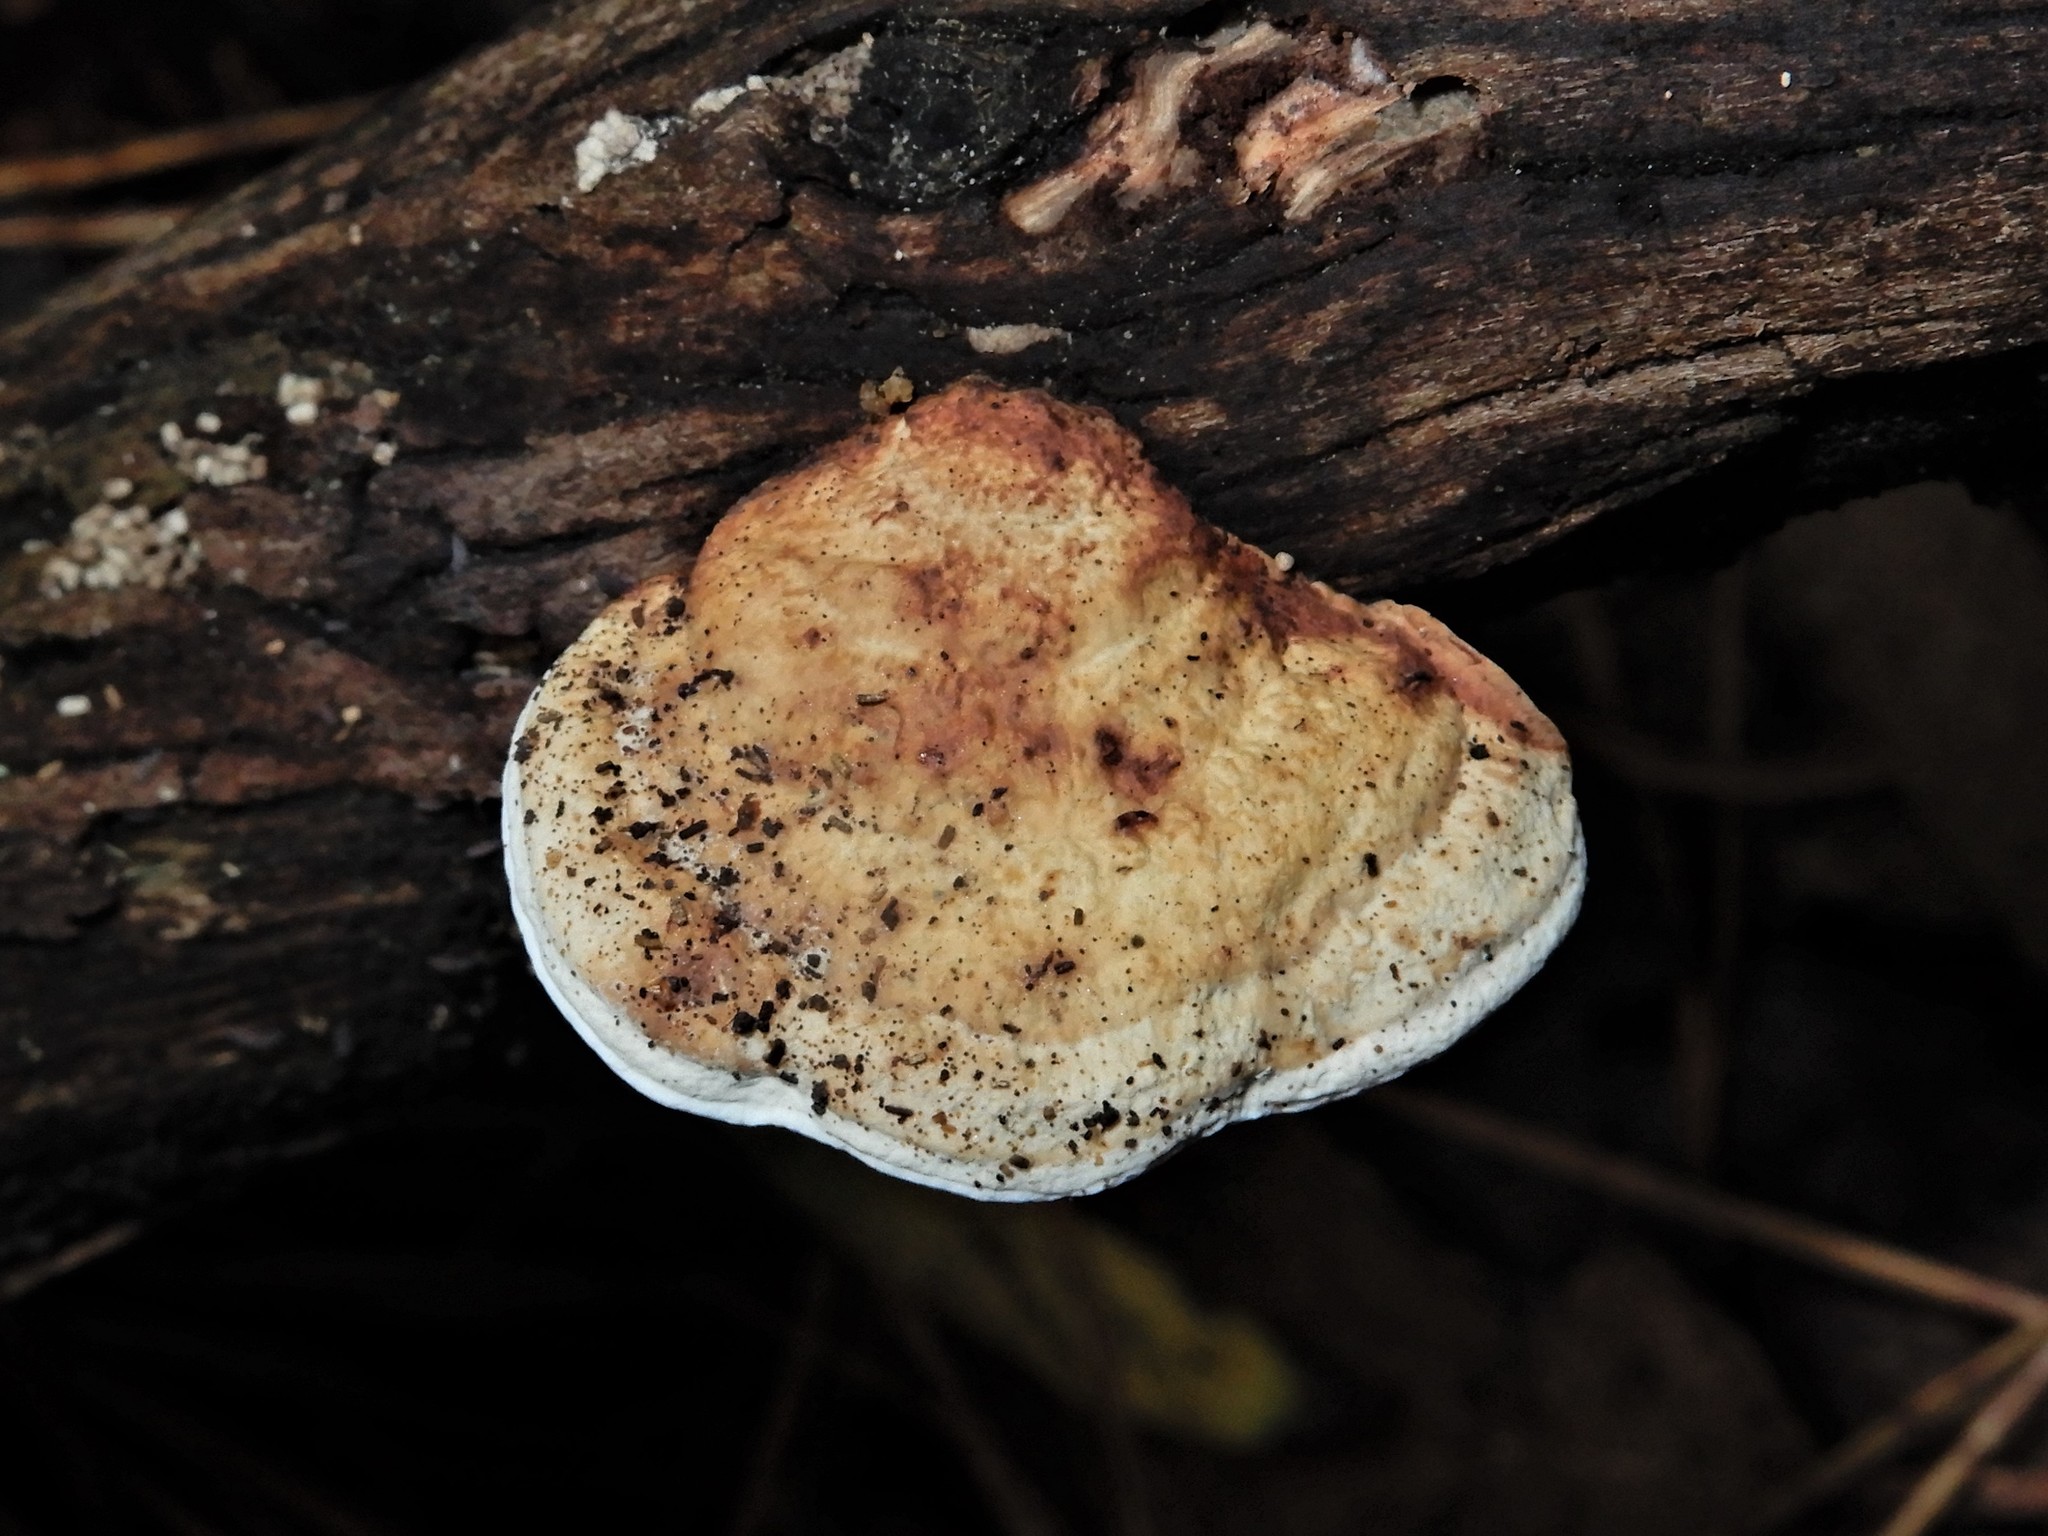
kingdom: Fungi
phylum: Basidiomycota
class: Agaricomycetes
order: Polyporales
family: Polyporaceae
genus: Truncospora
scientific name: Truncospora ochroleuca
